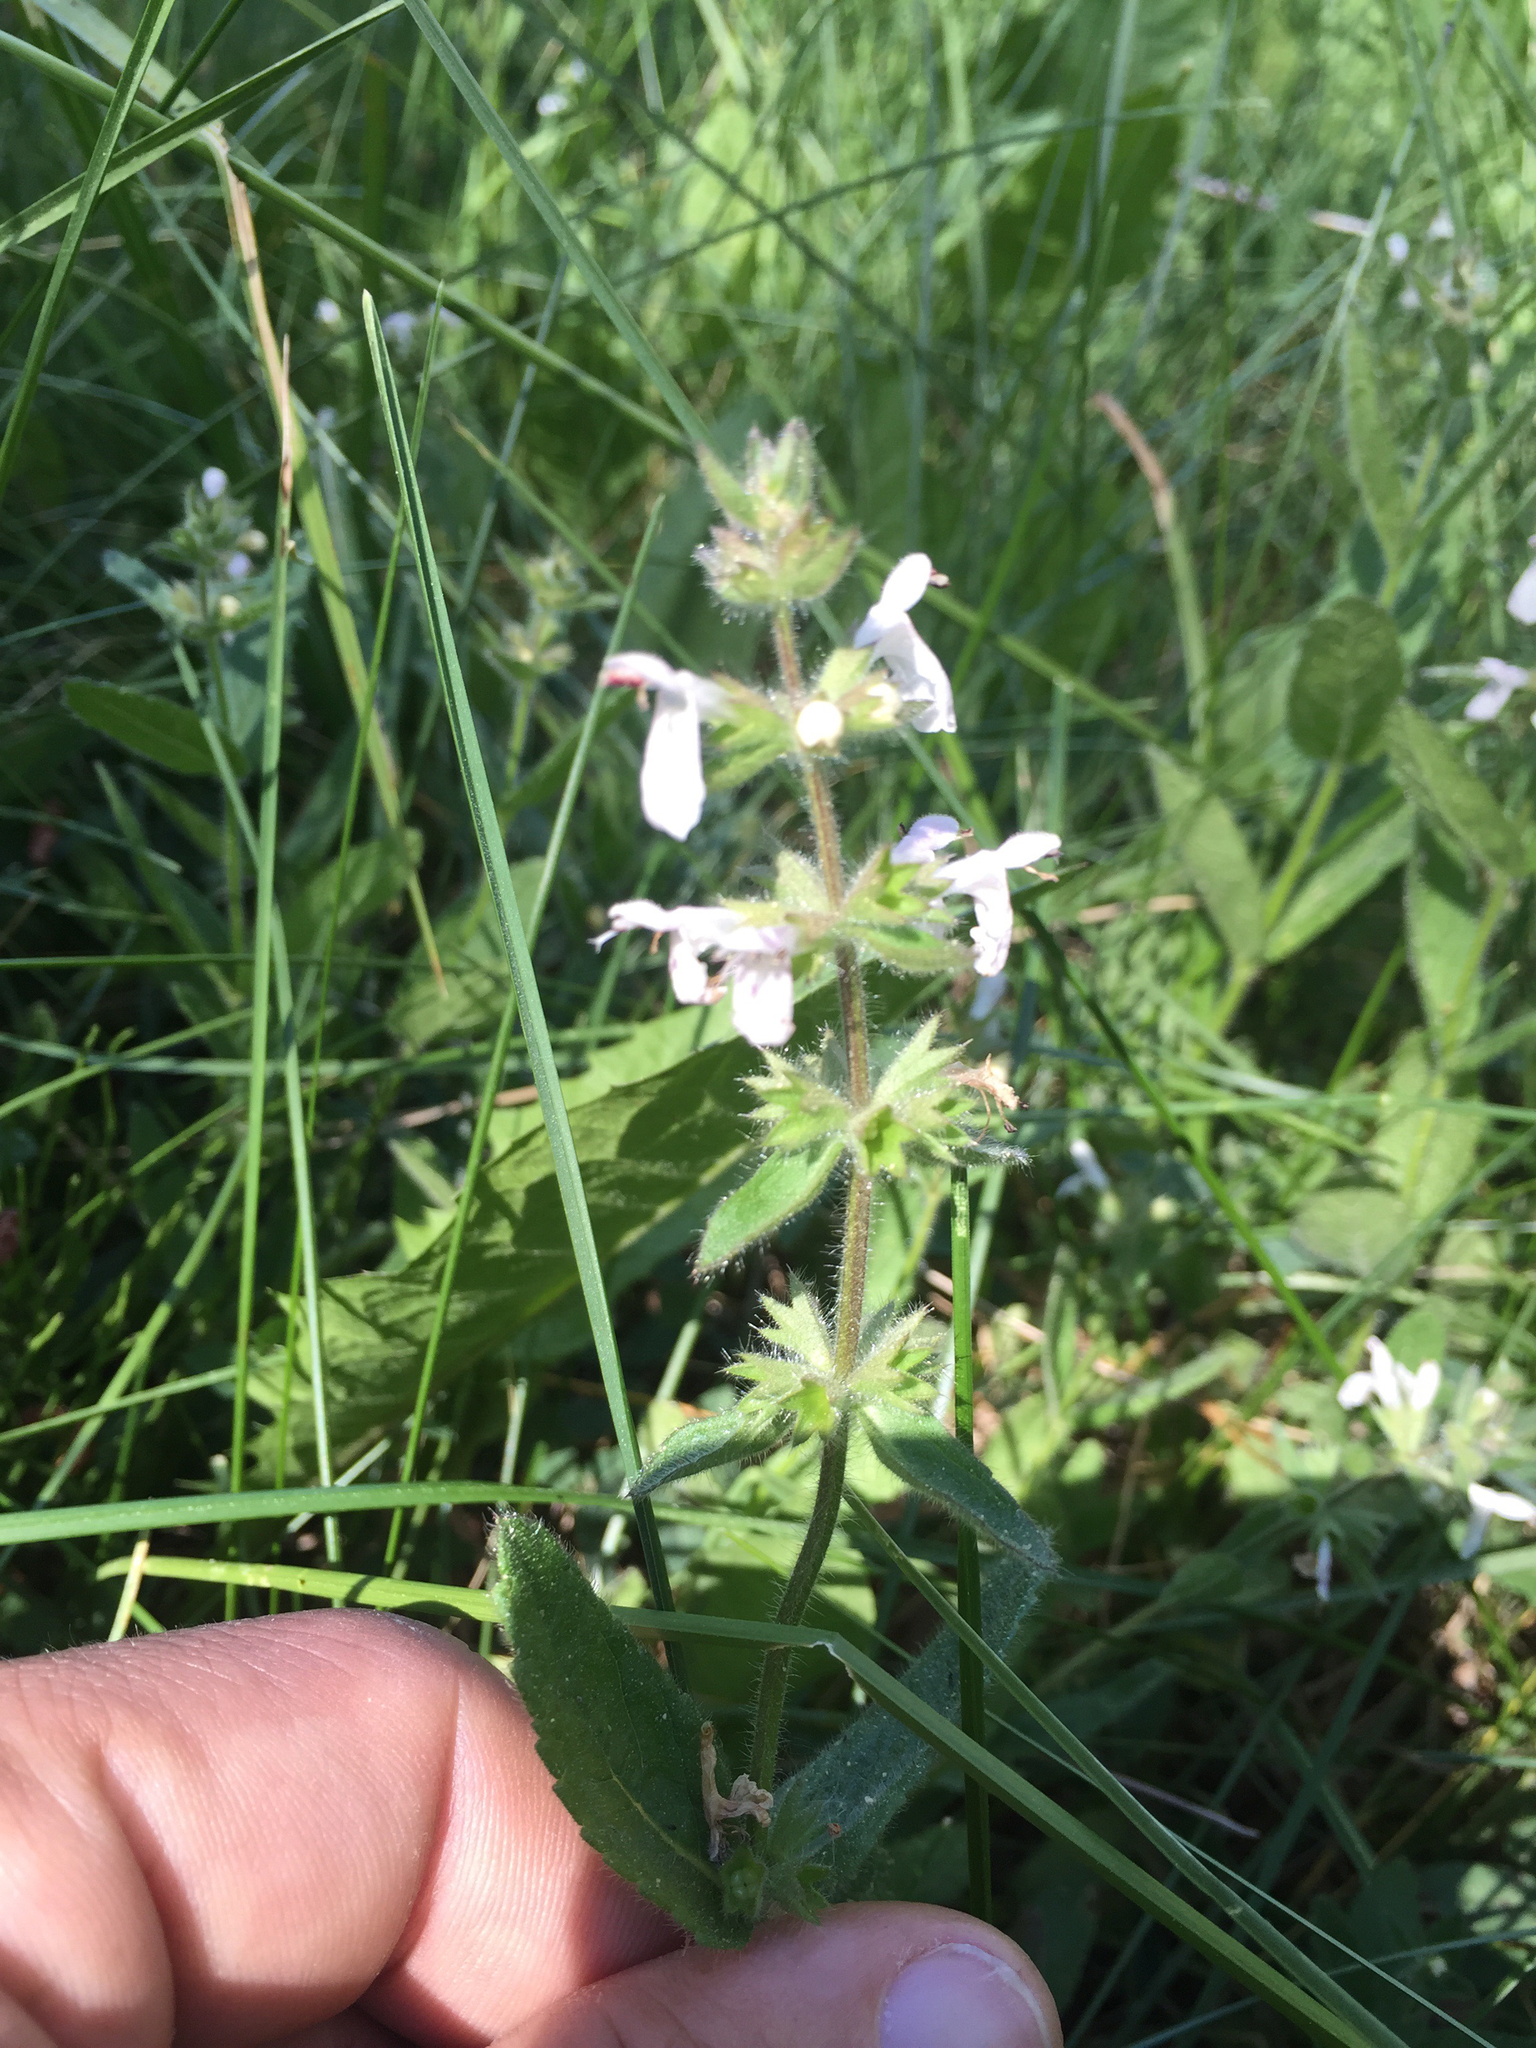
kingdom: Plantae
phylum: Tracheophyta
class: Magnoliopsida
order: Lamiales
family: Lamiaceae
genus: Stachys
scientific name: Stachys ajugoides
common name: Hedge-nettle
